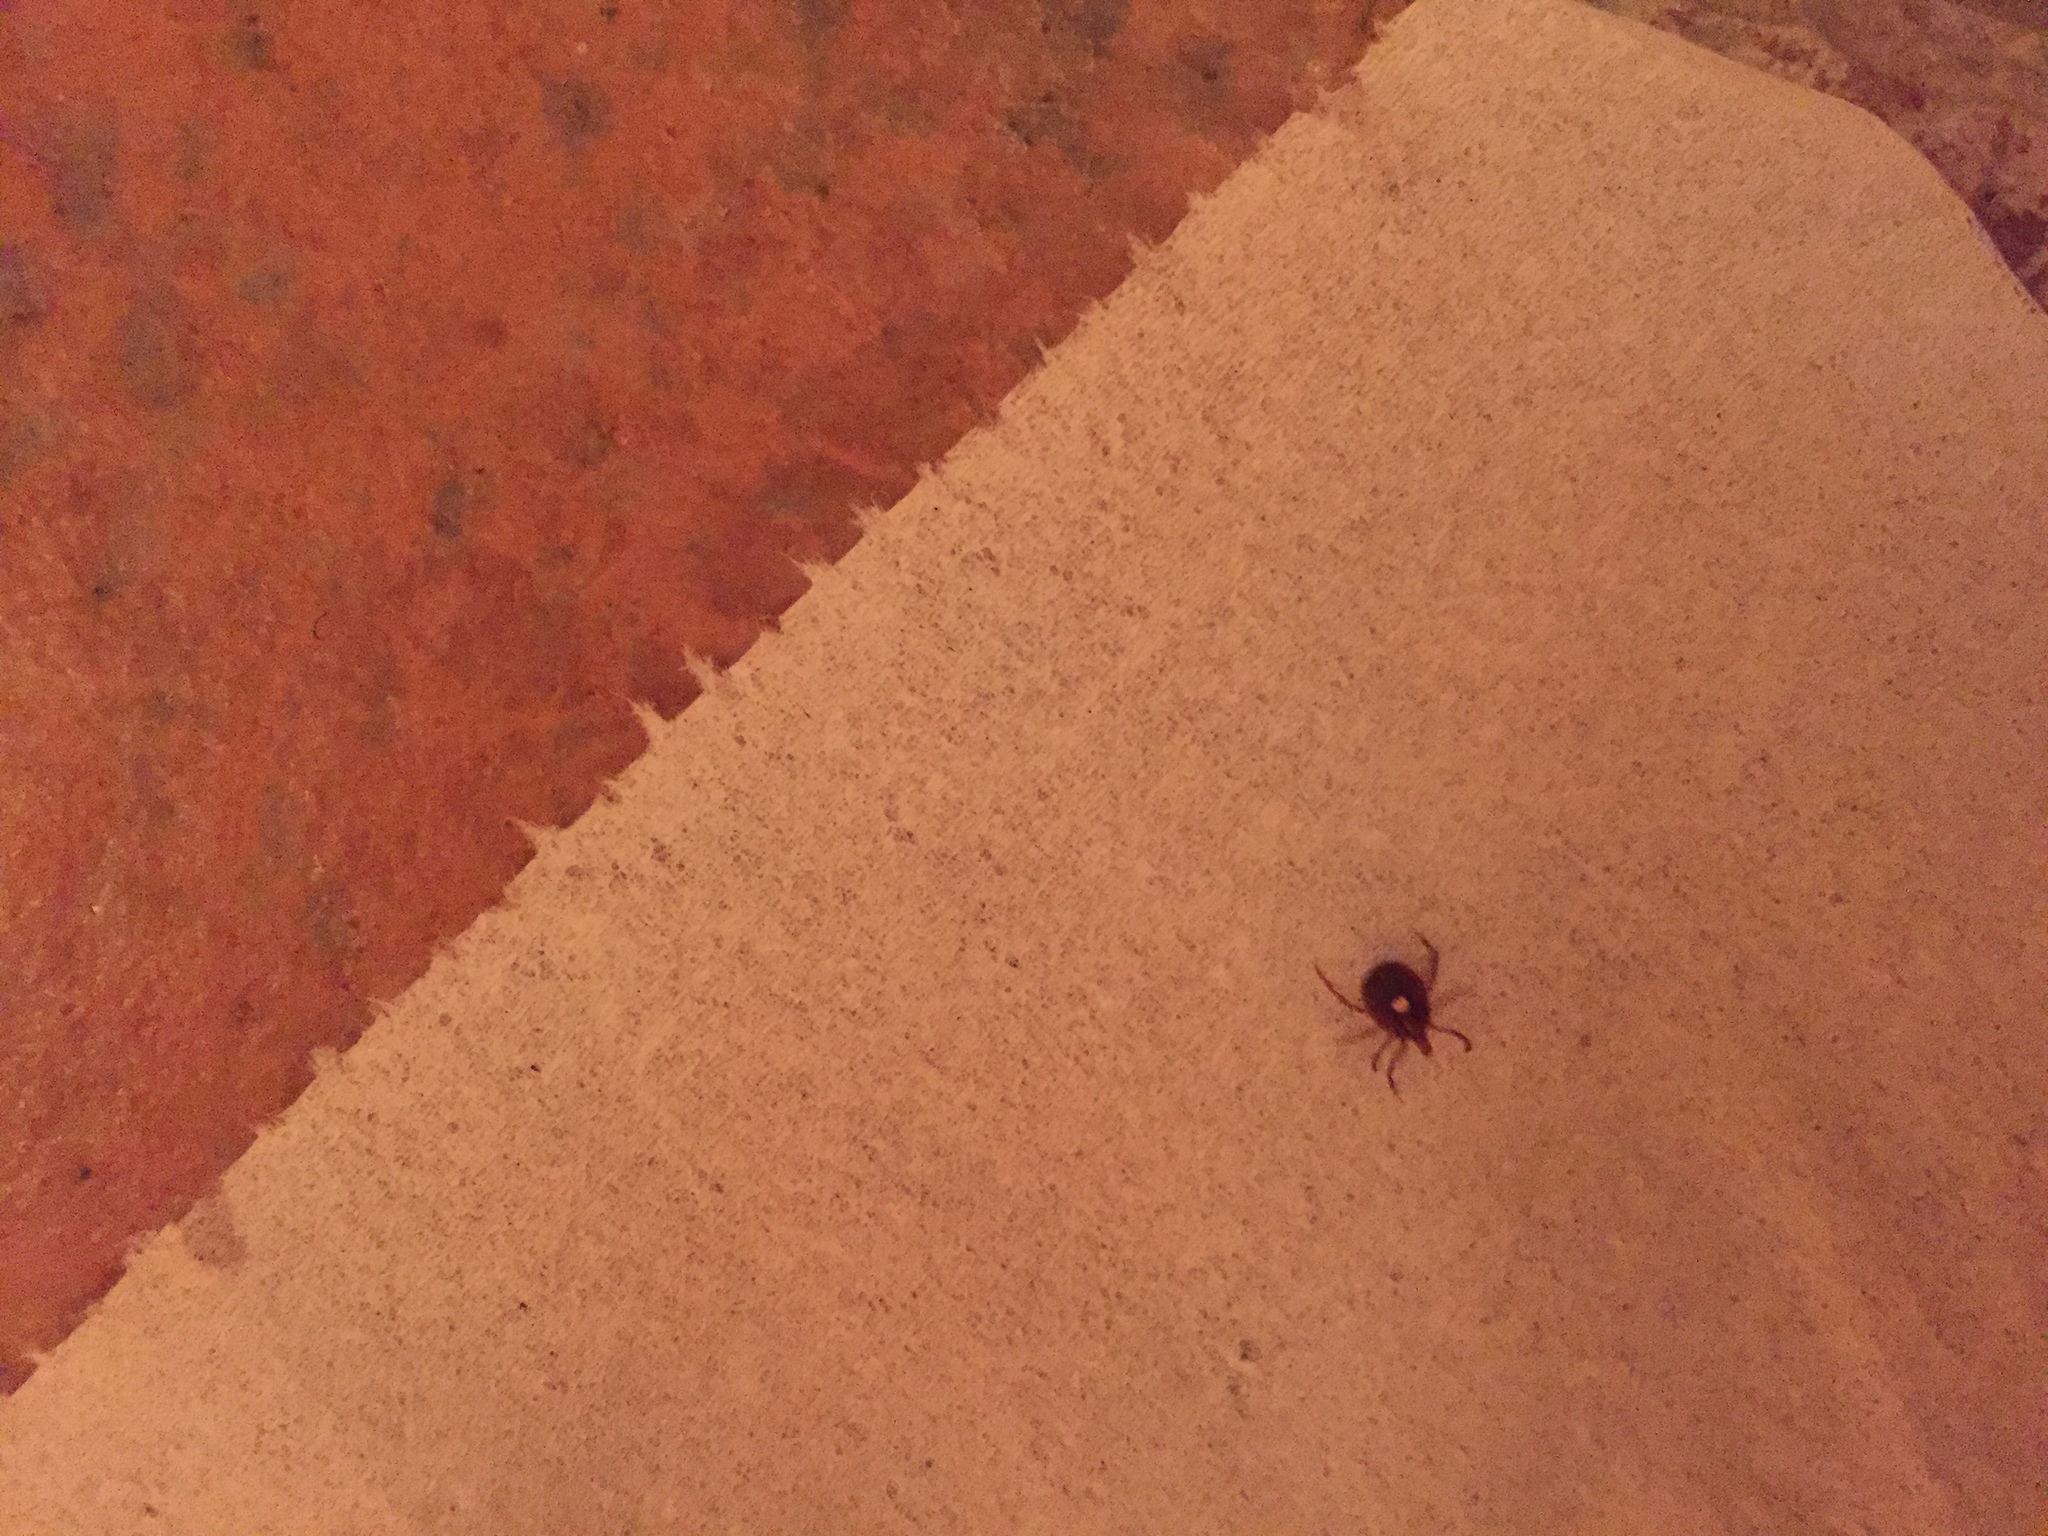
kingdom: Animalia
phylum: Arthropoda
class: Arachnida
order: Ixodida
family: Ixodidae
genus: Amblyomma
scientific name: Amblyomma americanum
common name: Lone star tick
